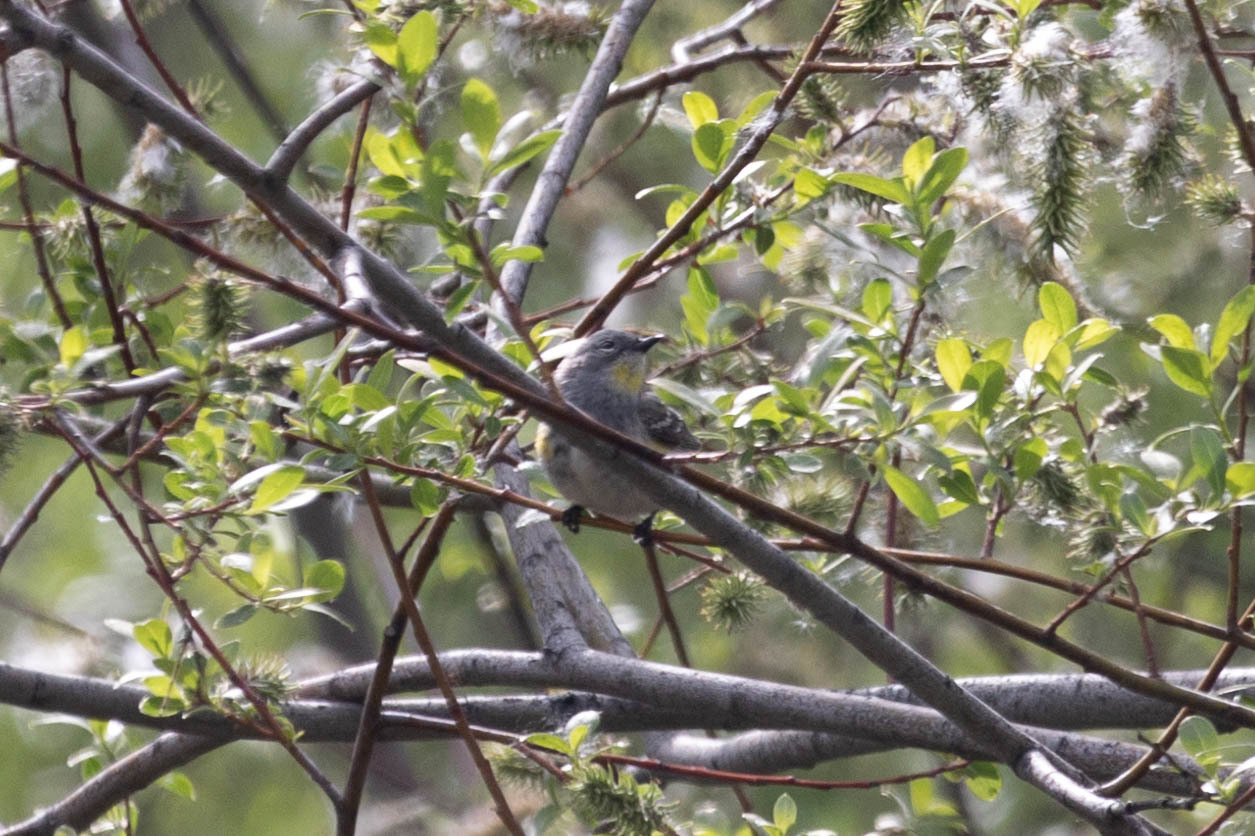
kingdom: Animalia
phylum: Chordata
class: Aves
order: Passeriformes
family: Parulidae
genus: Setophaga
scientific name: Setophaga coronata
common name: Myrtle warbler
